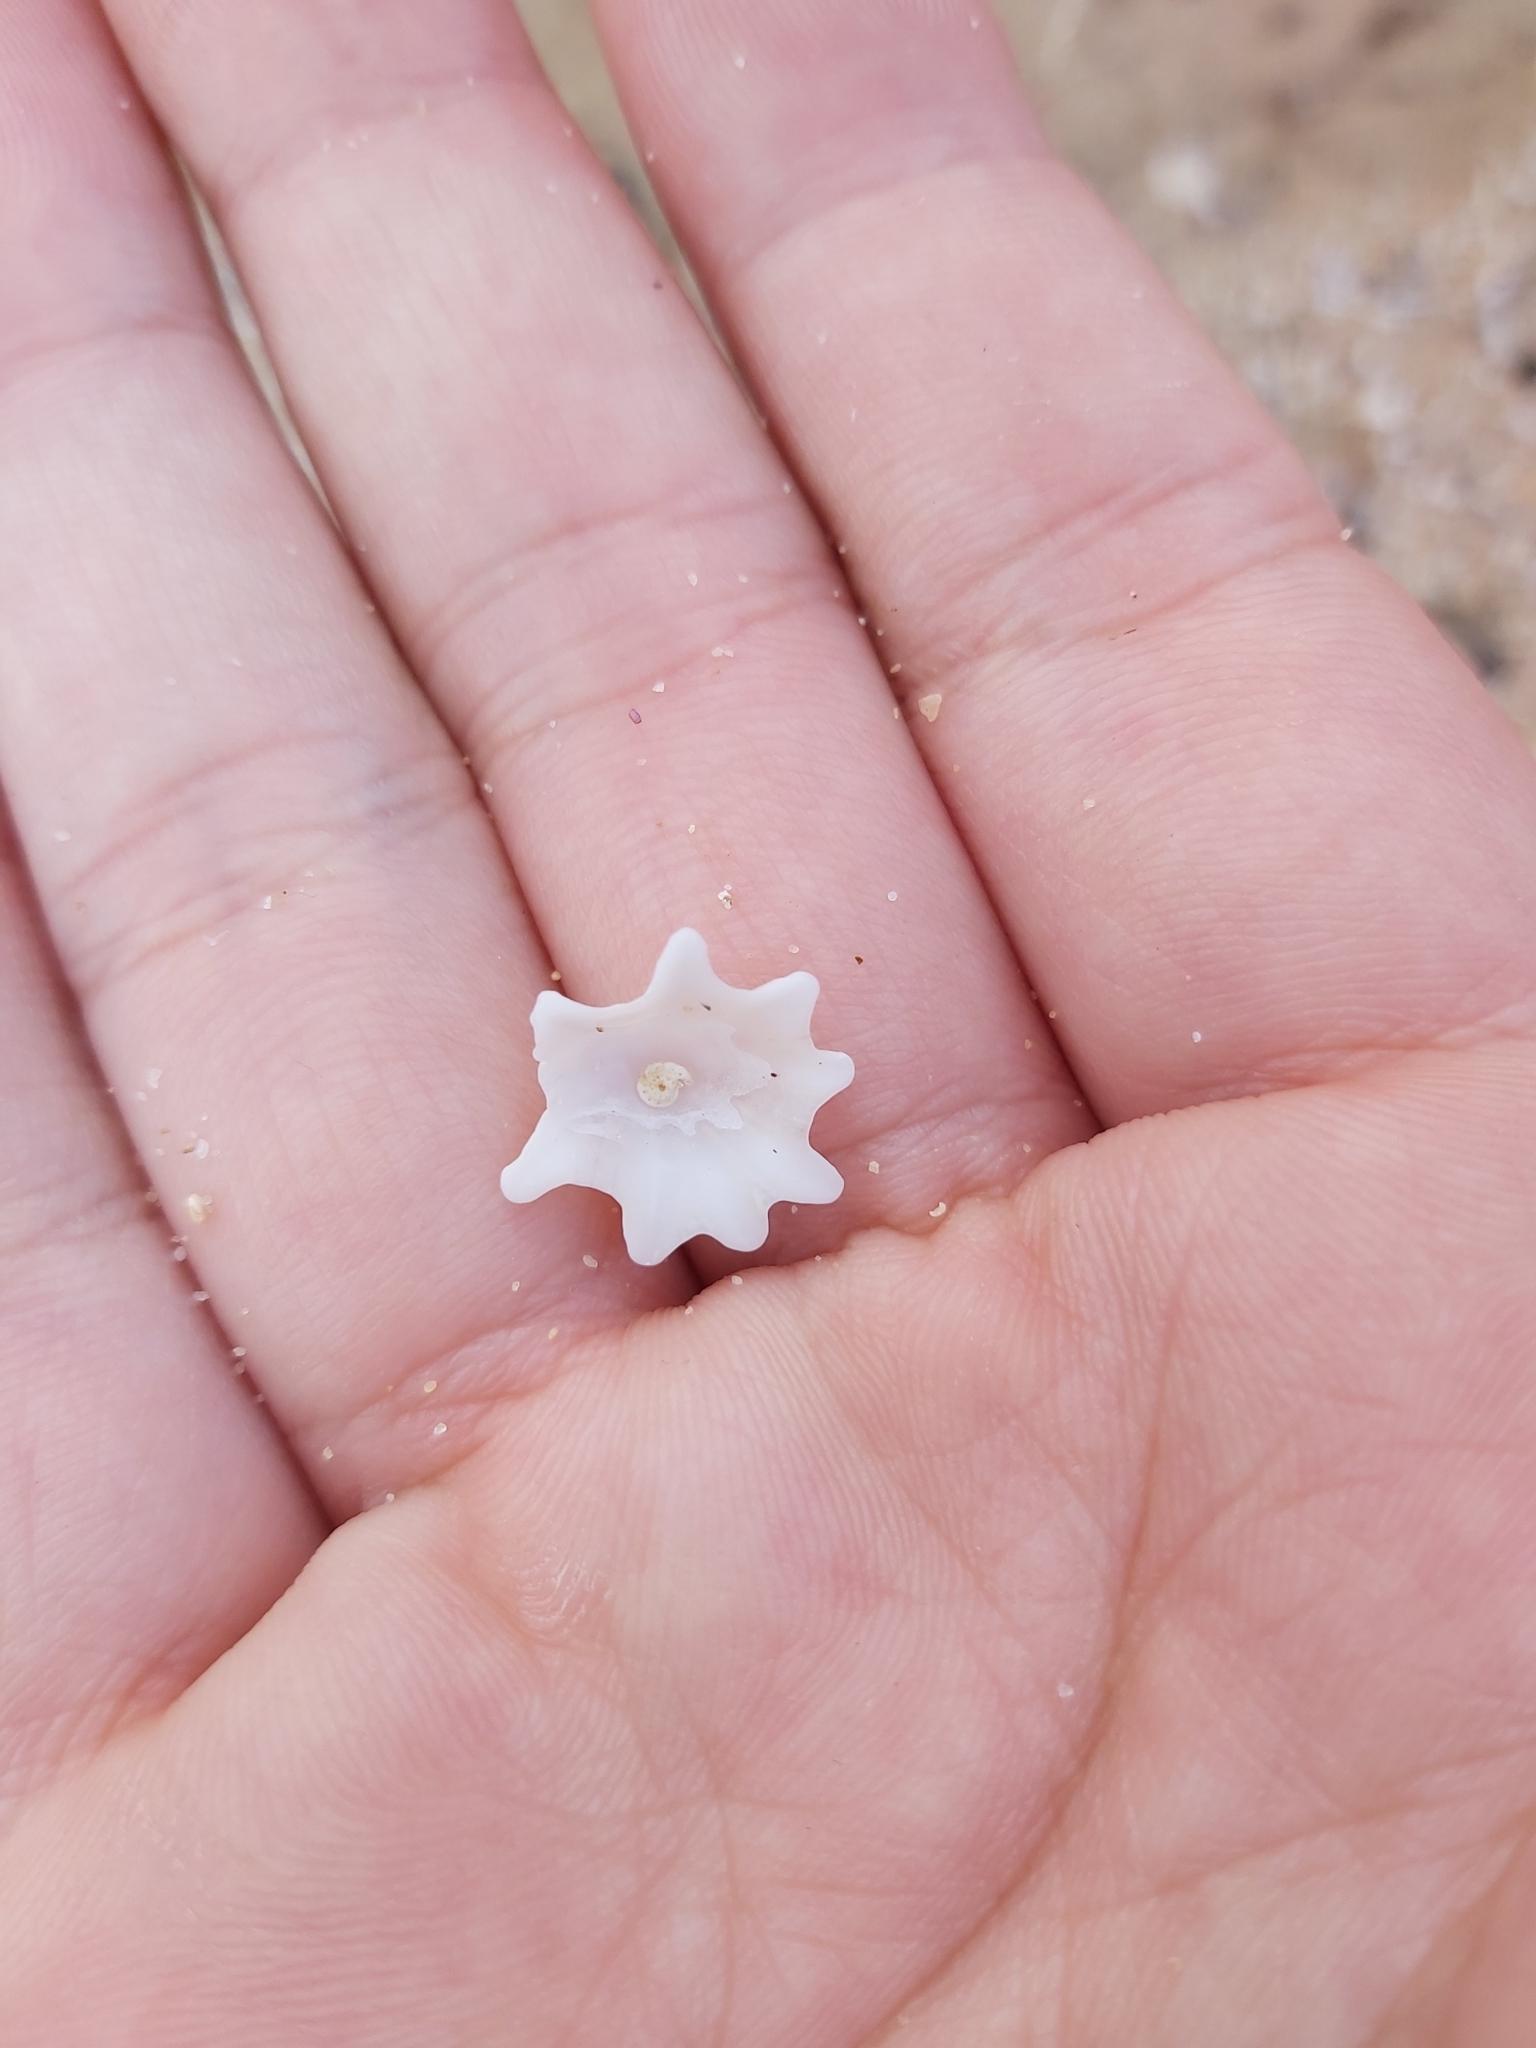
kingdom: Animalia
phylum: Mollusca
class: Gastropoda
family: Patellidae
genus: Scutellastra
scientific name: Scutellastra chapmani
